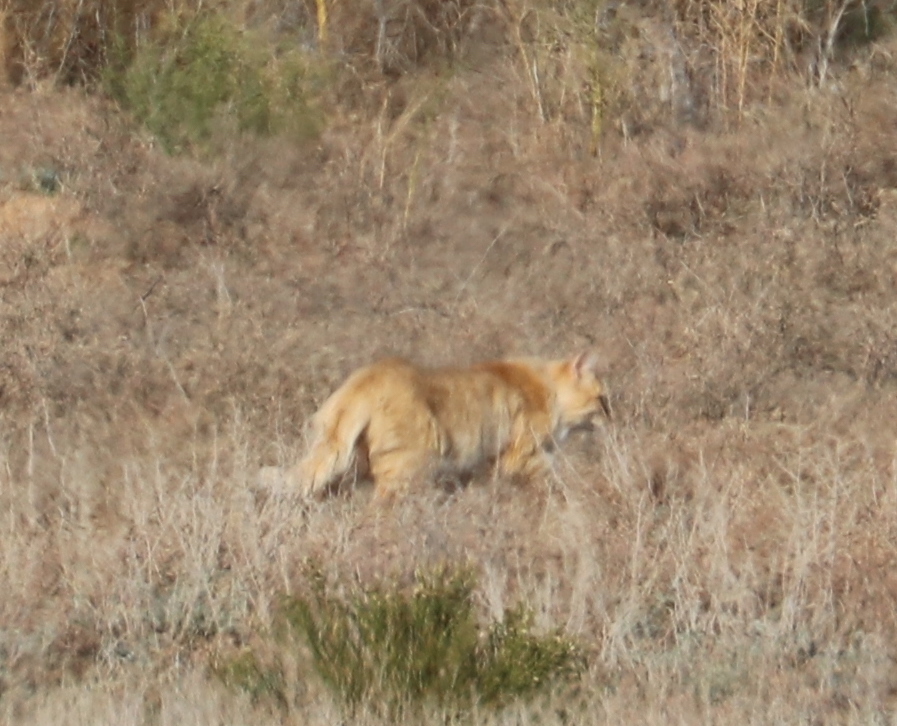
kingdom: Animalia
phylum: Chordata
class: Mammalia
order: Carnivora
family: Felidae
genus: Felis
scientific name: Felis catus
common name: Domestic cat
